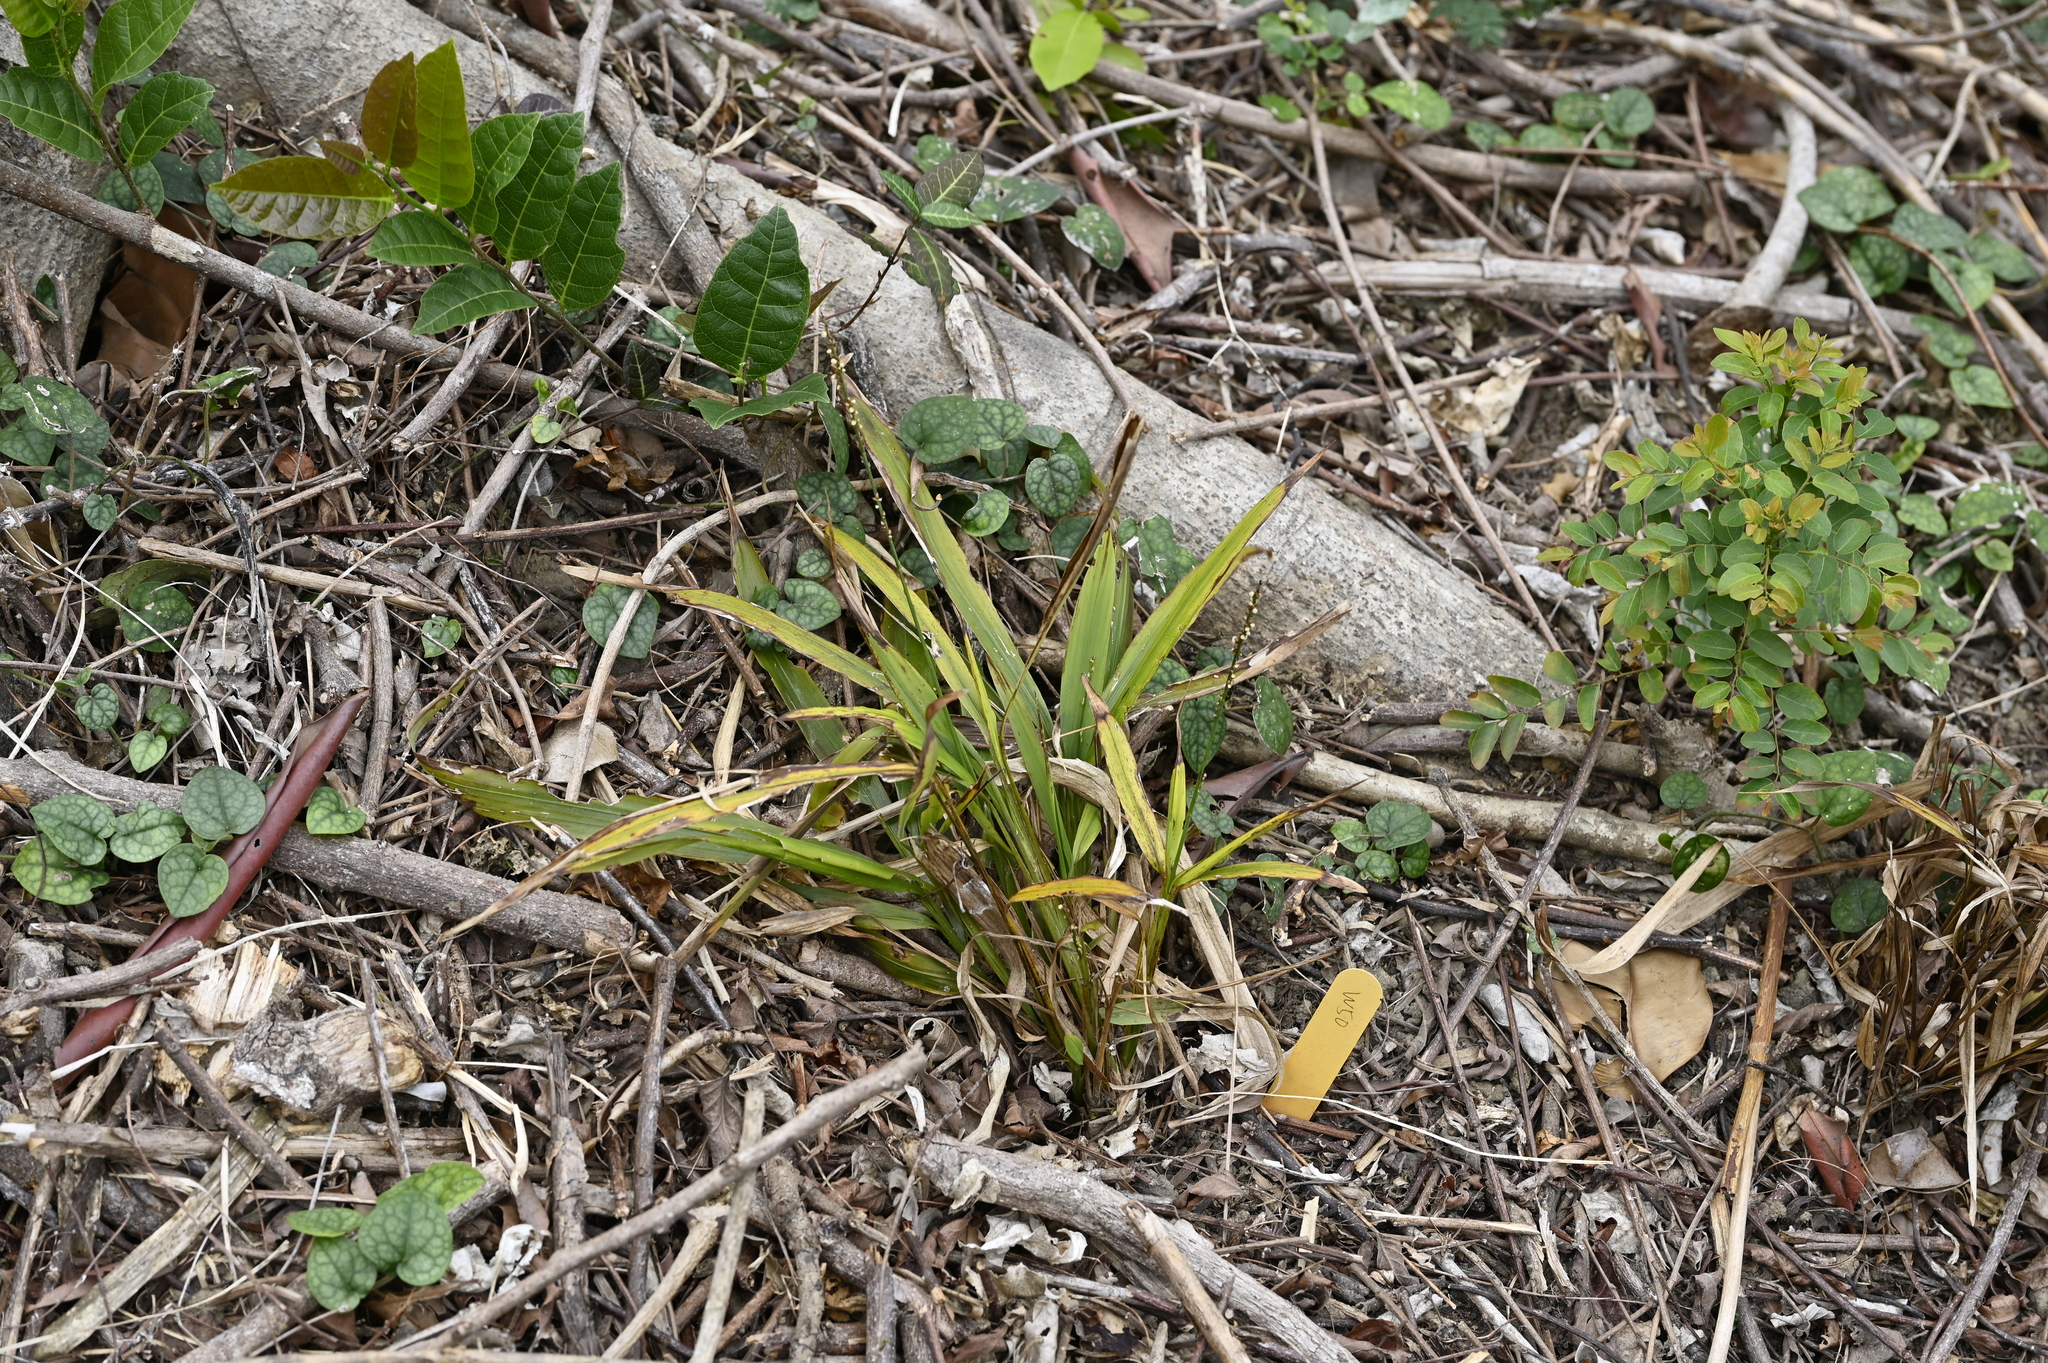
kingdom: Plantae
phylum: Tracheophyta
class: Liliopsida
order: Poales
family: Poaceae
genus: Leptaspis
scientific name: Leptaspis banksii
